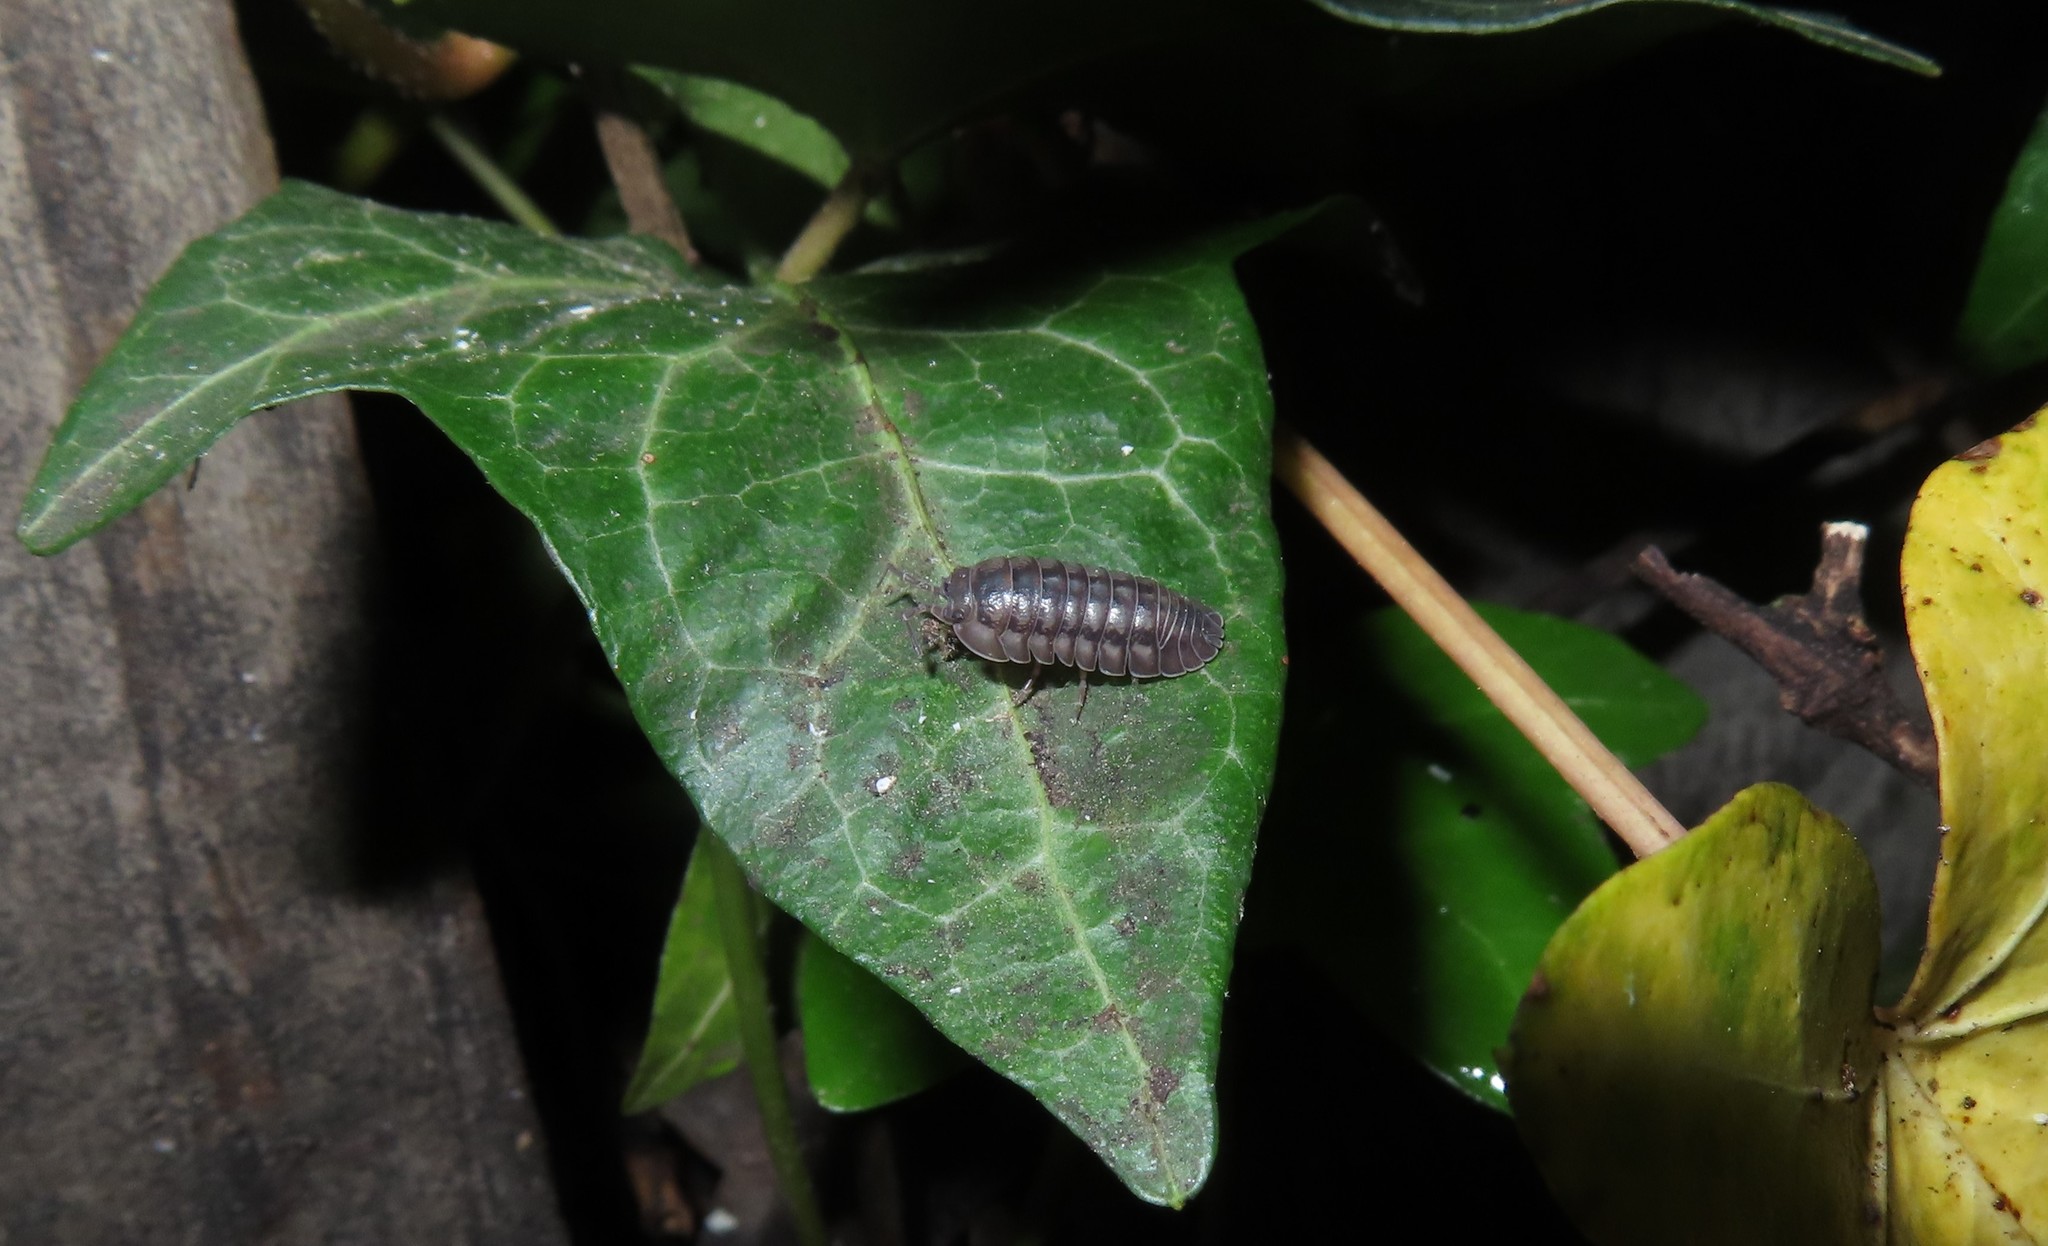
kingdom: Animalia
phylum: Arthropoda
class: Malacostraca
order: Isopoda
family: Armadillidiidae
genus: Armadillidium
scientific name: Armadillidium nasatum
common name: Isopod
